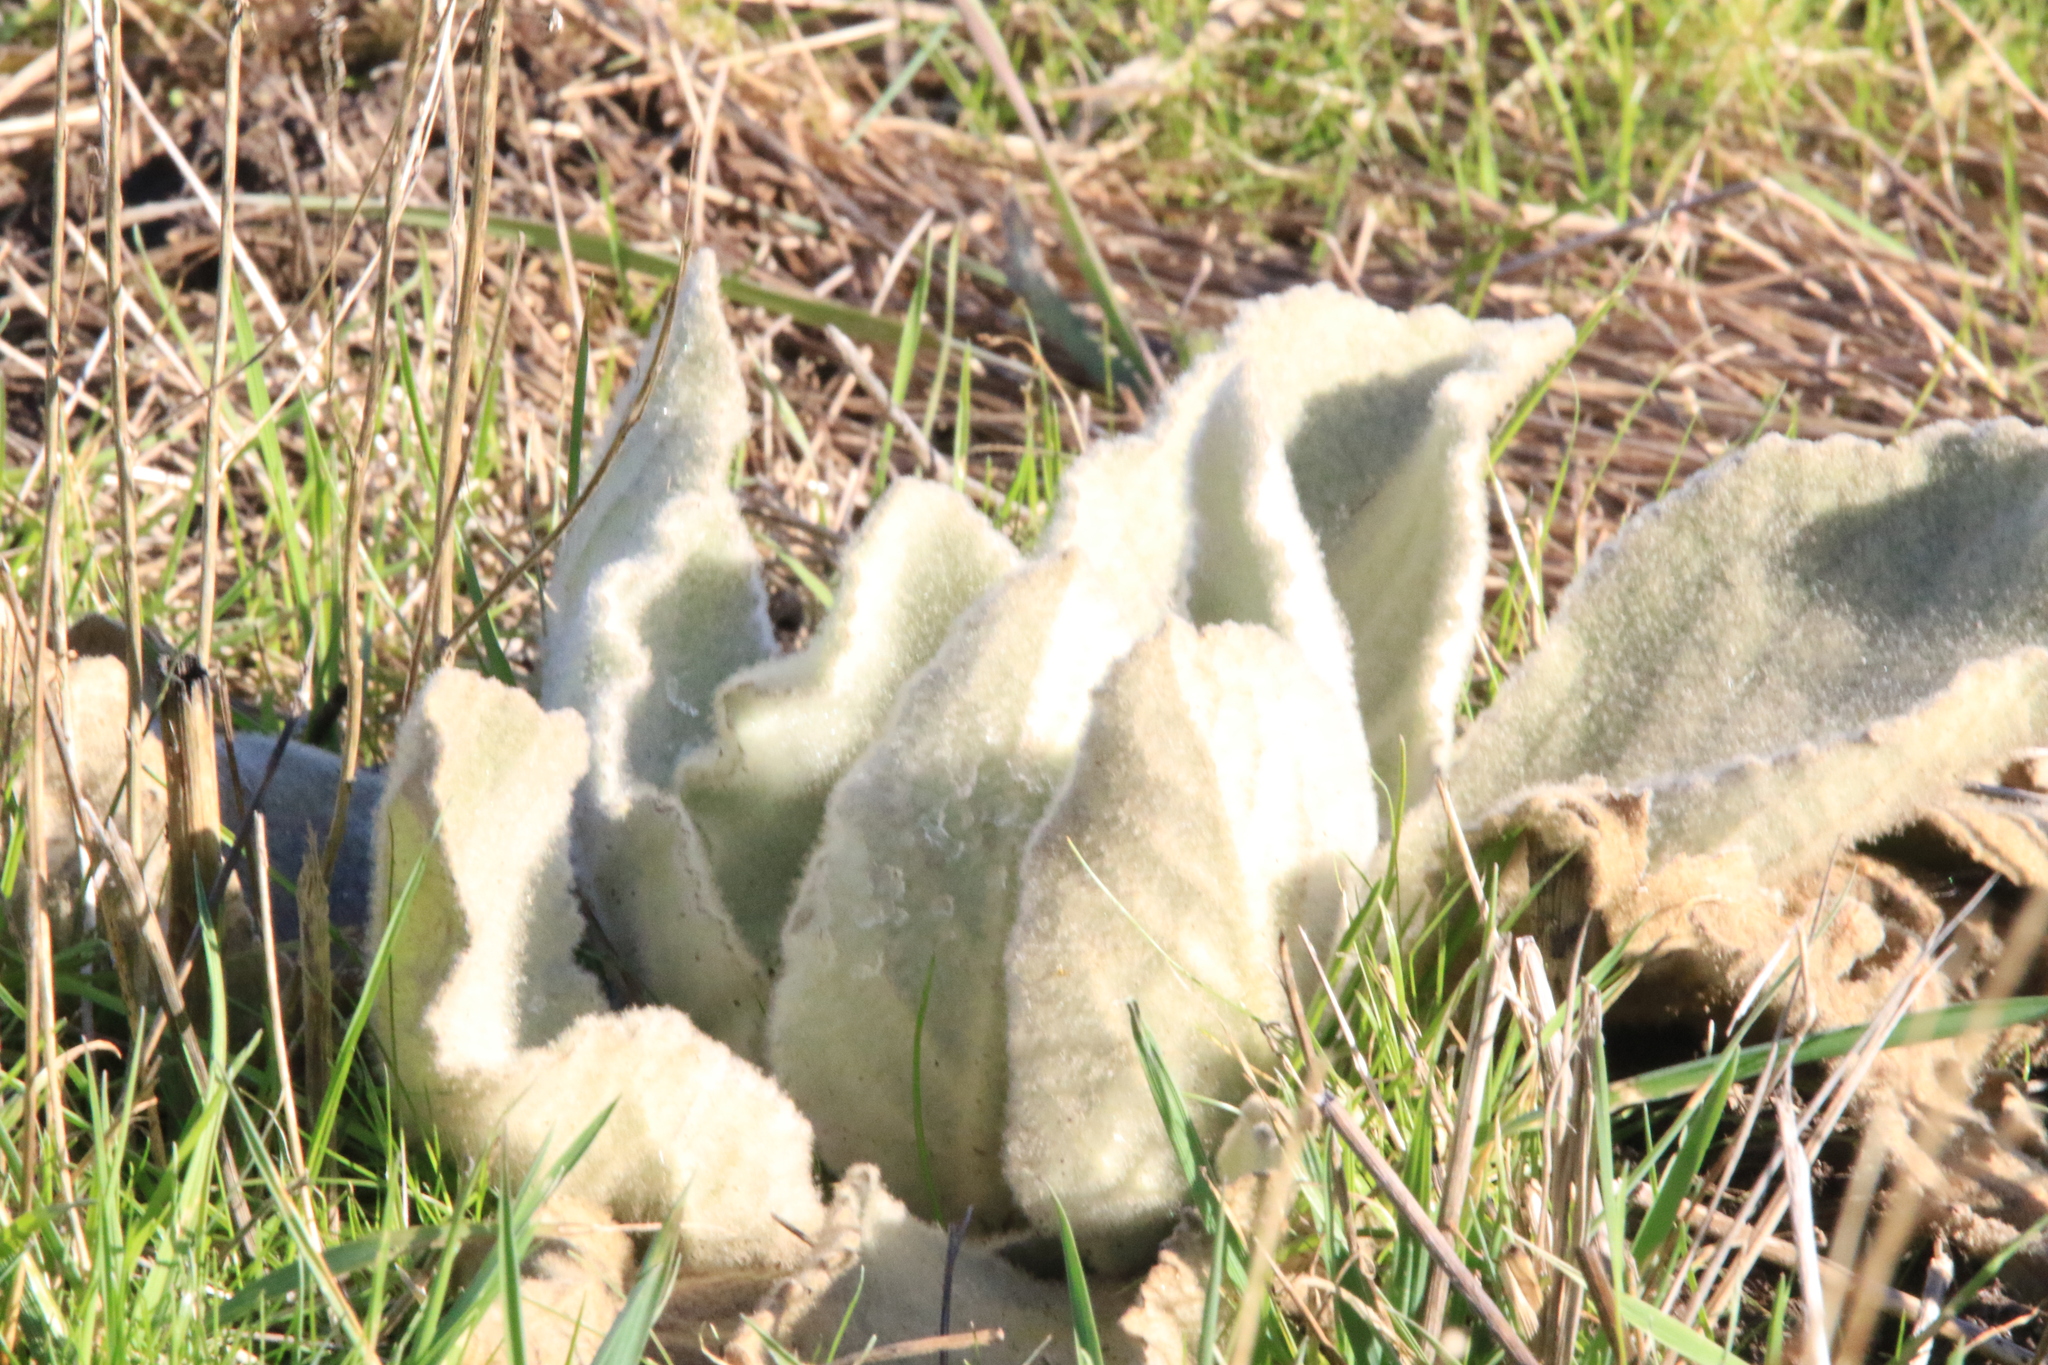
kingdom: Plantae
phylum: Tracheophyta
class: Magnoliopsida
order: Lamiales
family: Scrophulariaceae
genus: Verbascum
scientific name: Verbascum thapsus
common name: Common mullein
